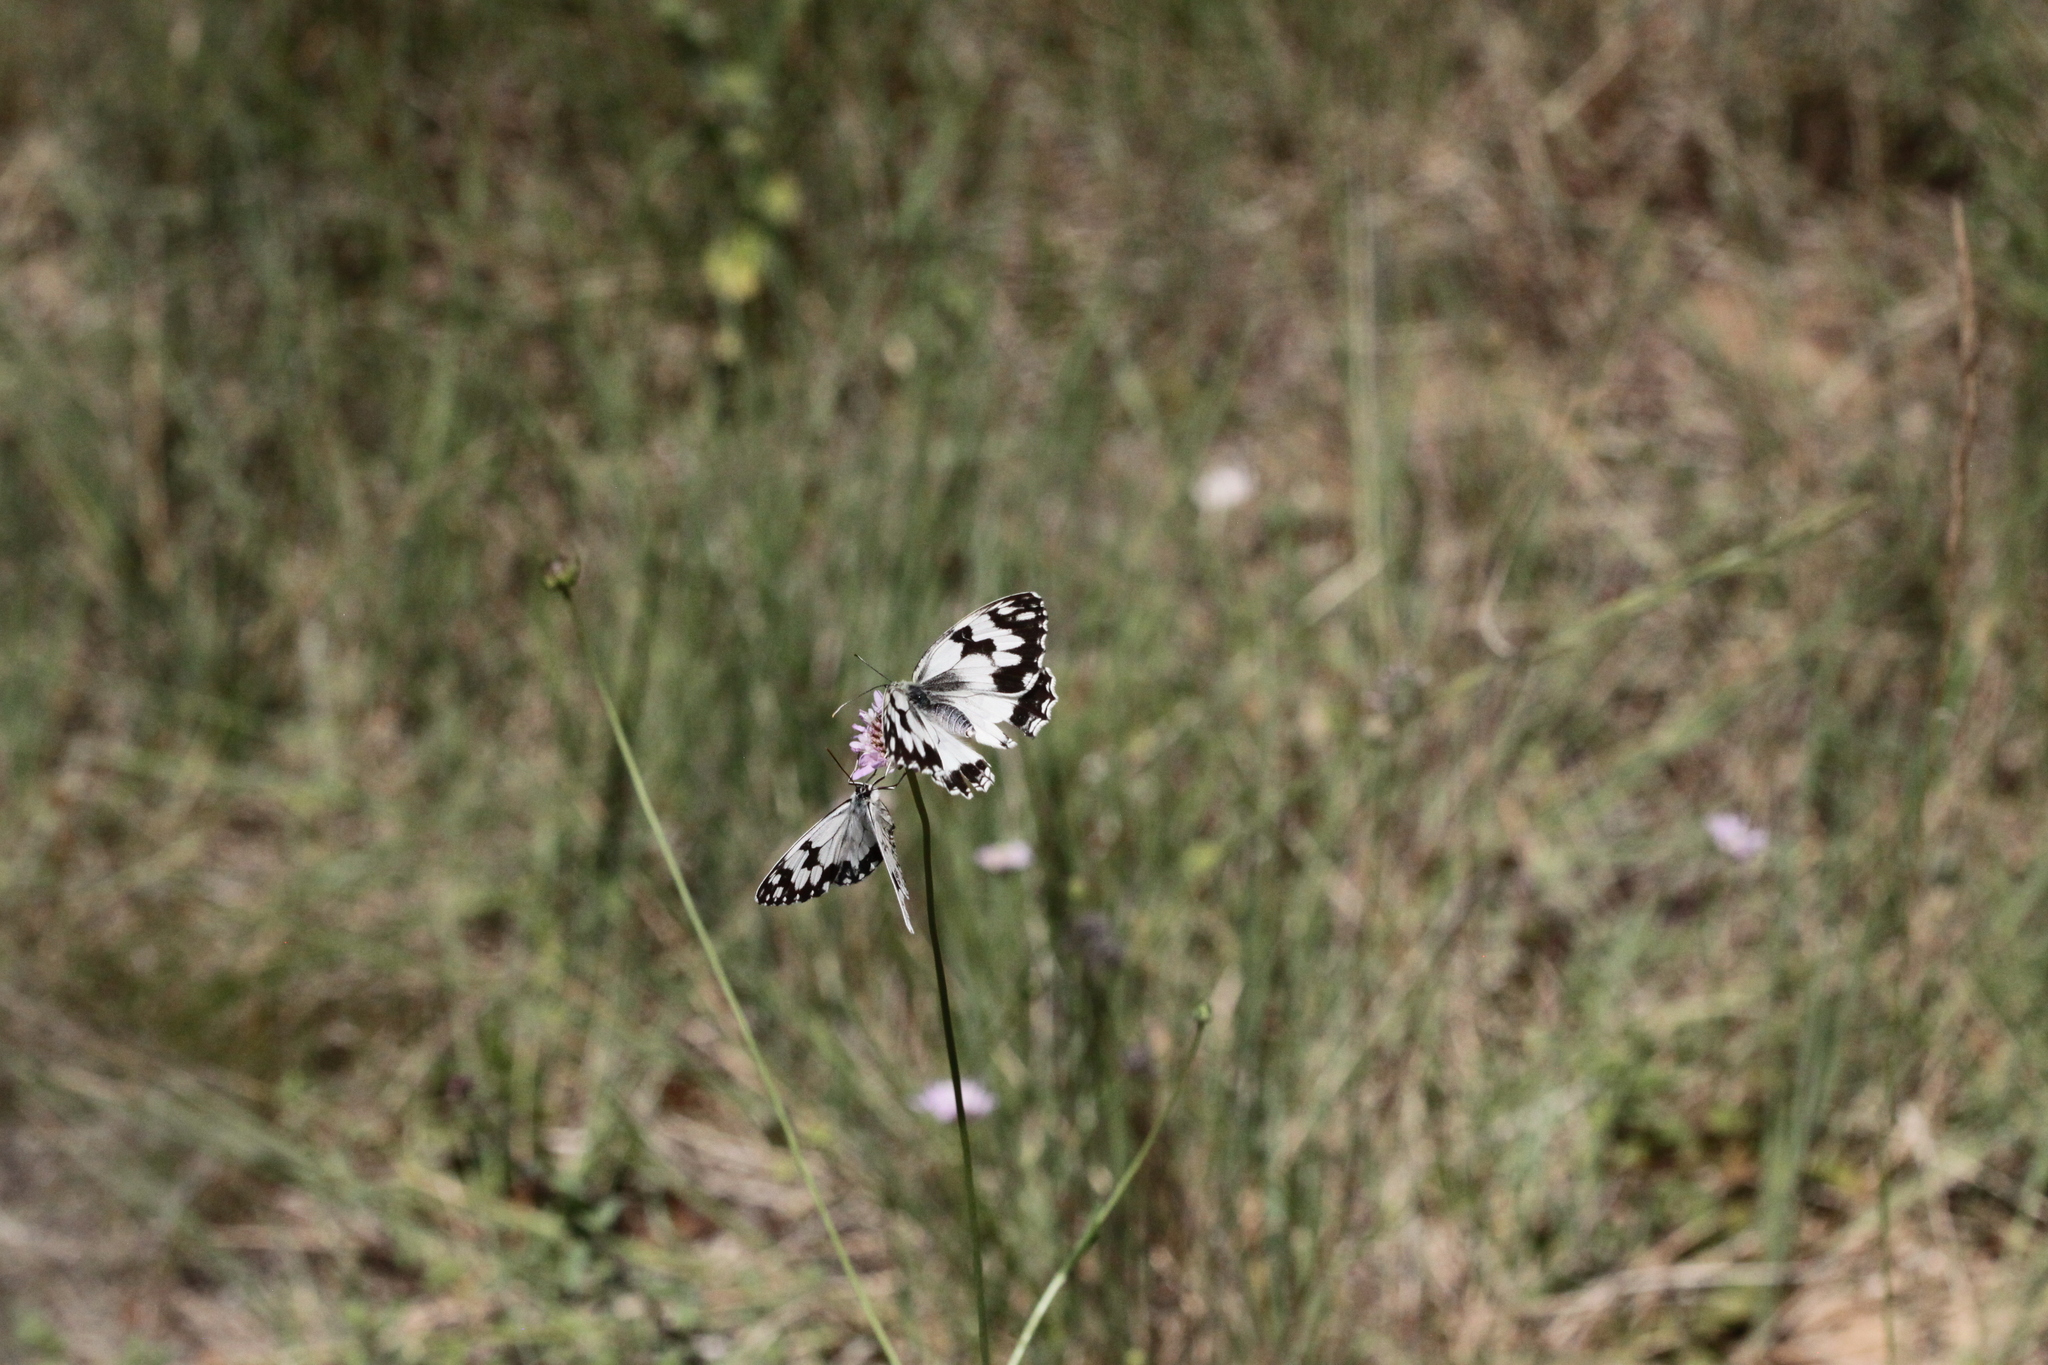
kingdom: Animalia
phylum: Arthropoda
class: Insecta
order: Lepidoptera
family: Nymphalidae
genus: Melanargia
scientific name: Melanargia lachesis
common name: Iberian marbled white
